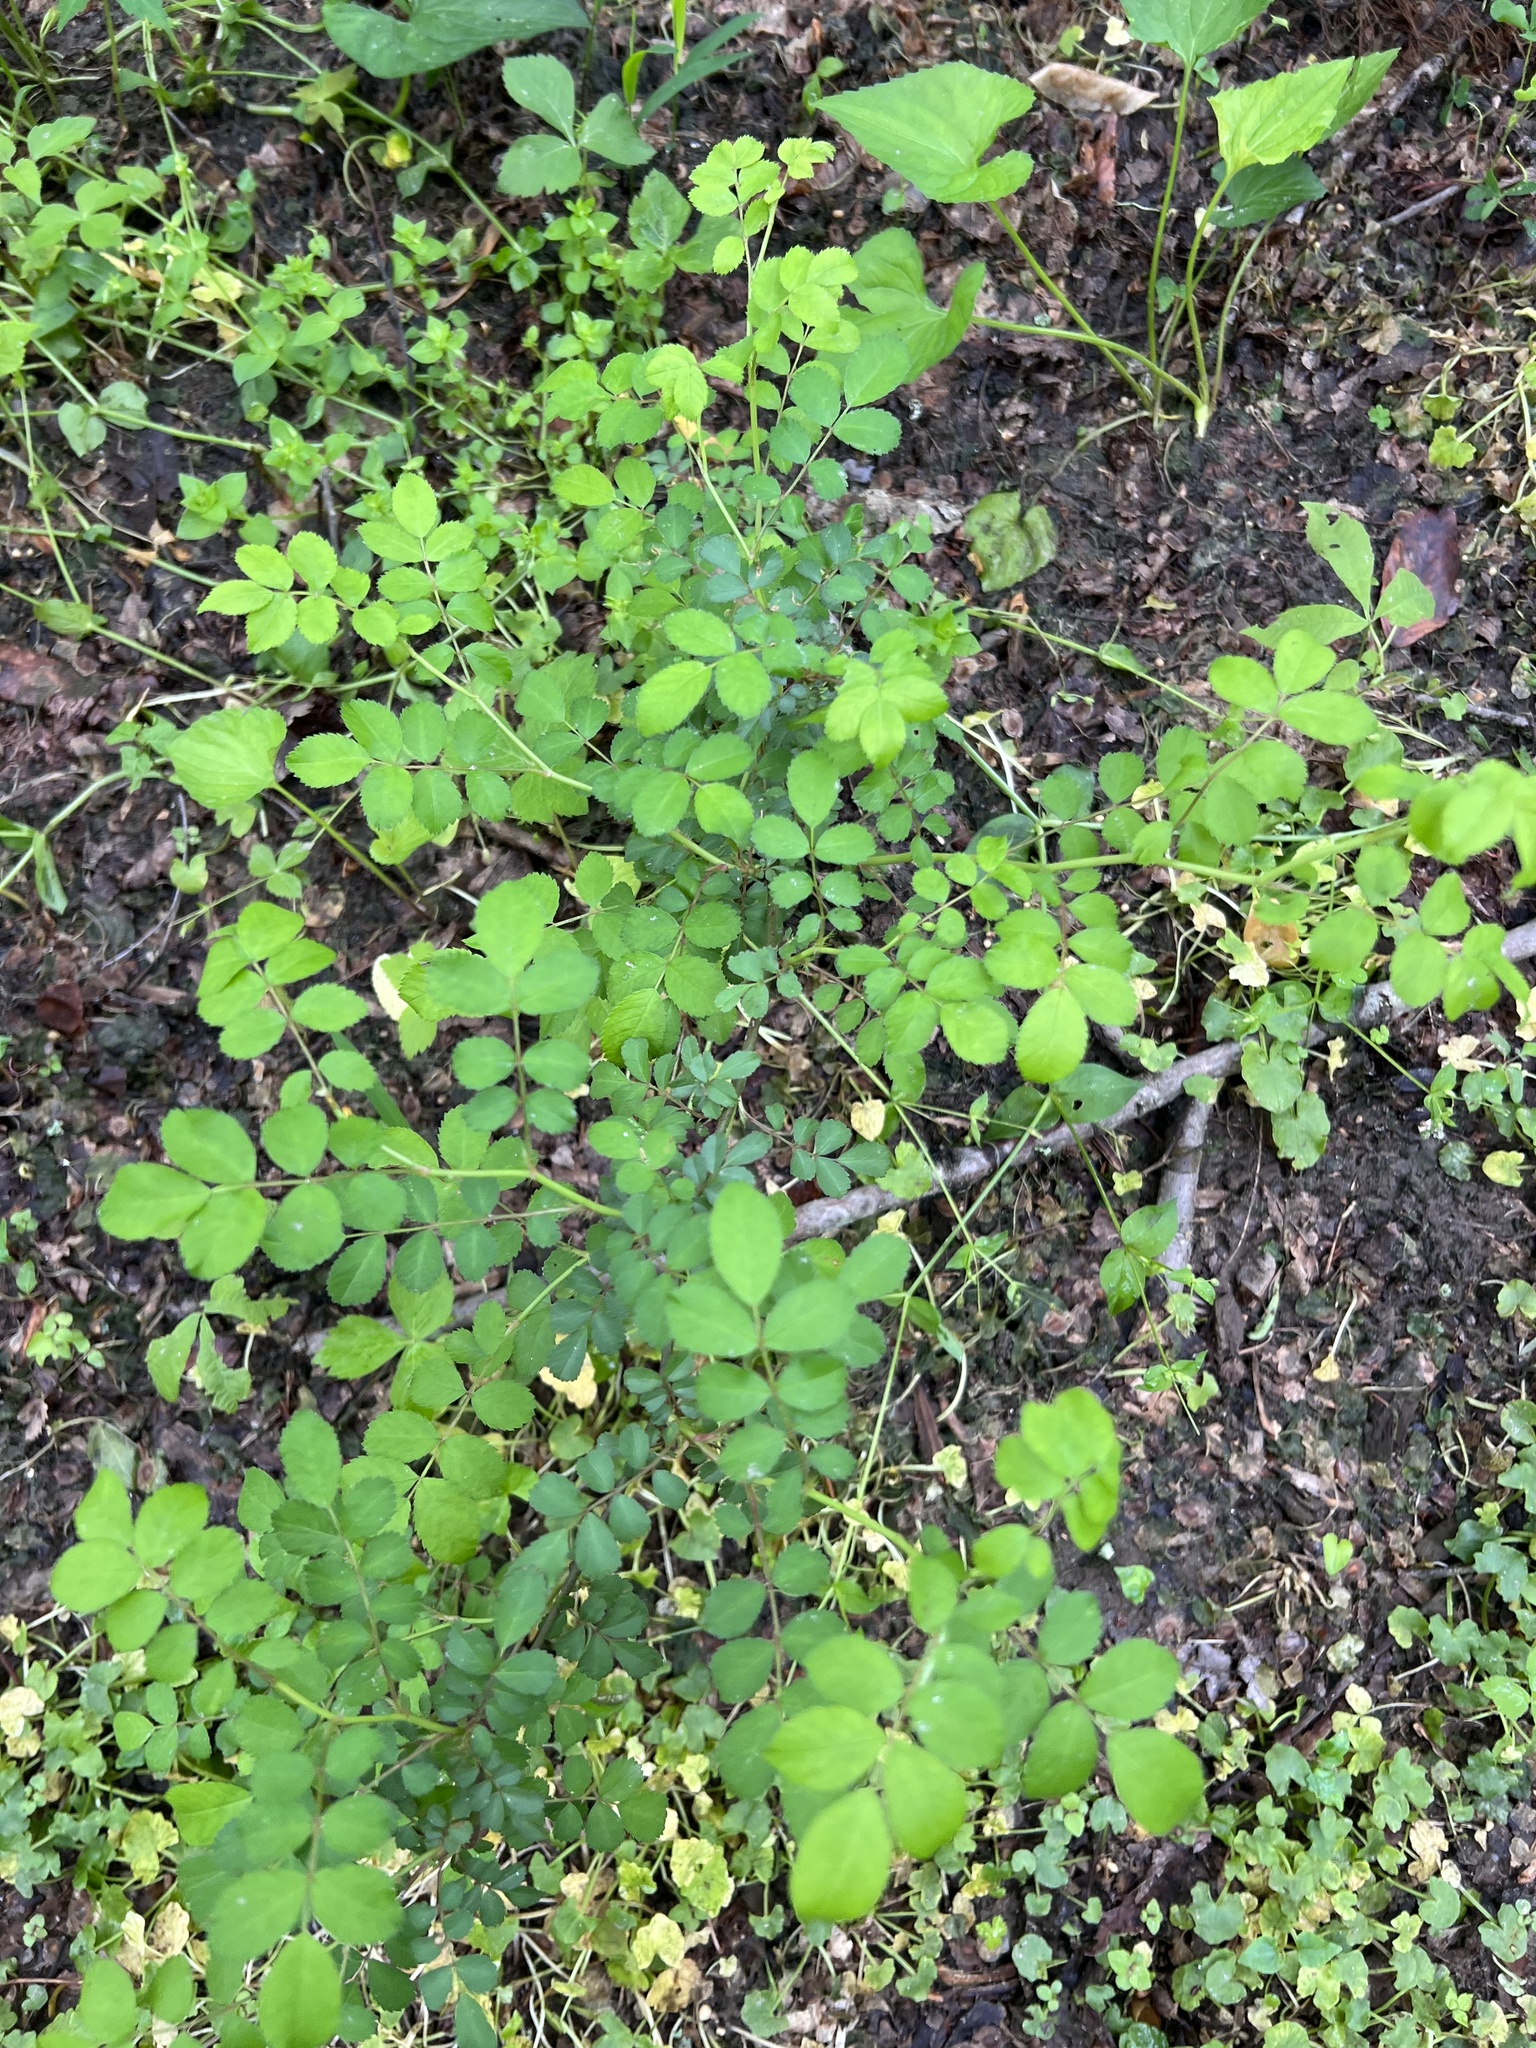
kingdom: Plantae
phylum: Tracheophyta
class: Magnoliopsida
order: Rosales
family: Rosaceae
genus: Rosa
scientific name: Rosa multiflora
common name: Multiflora rose
